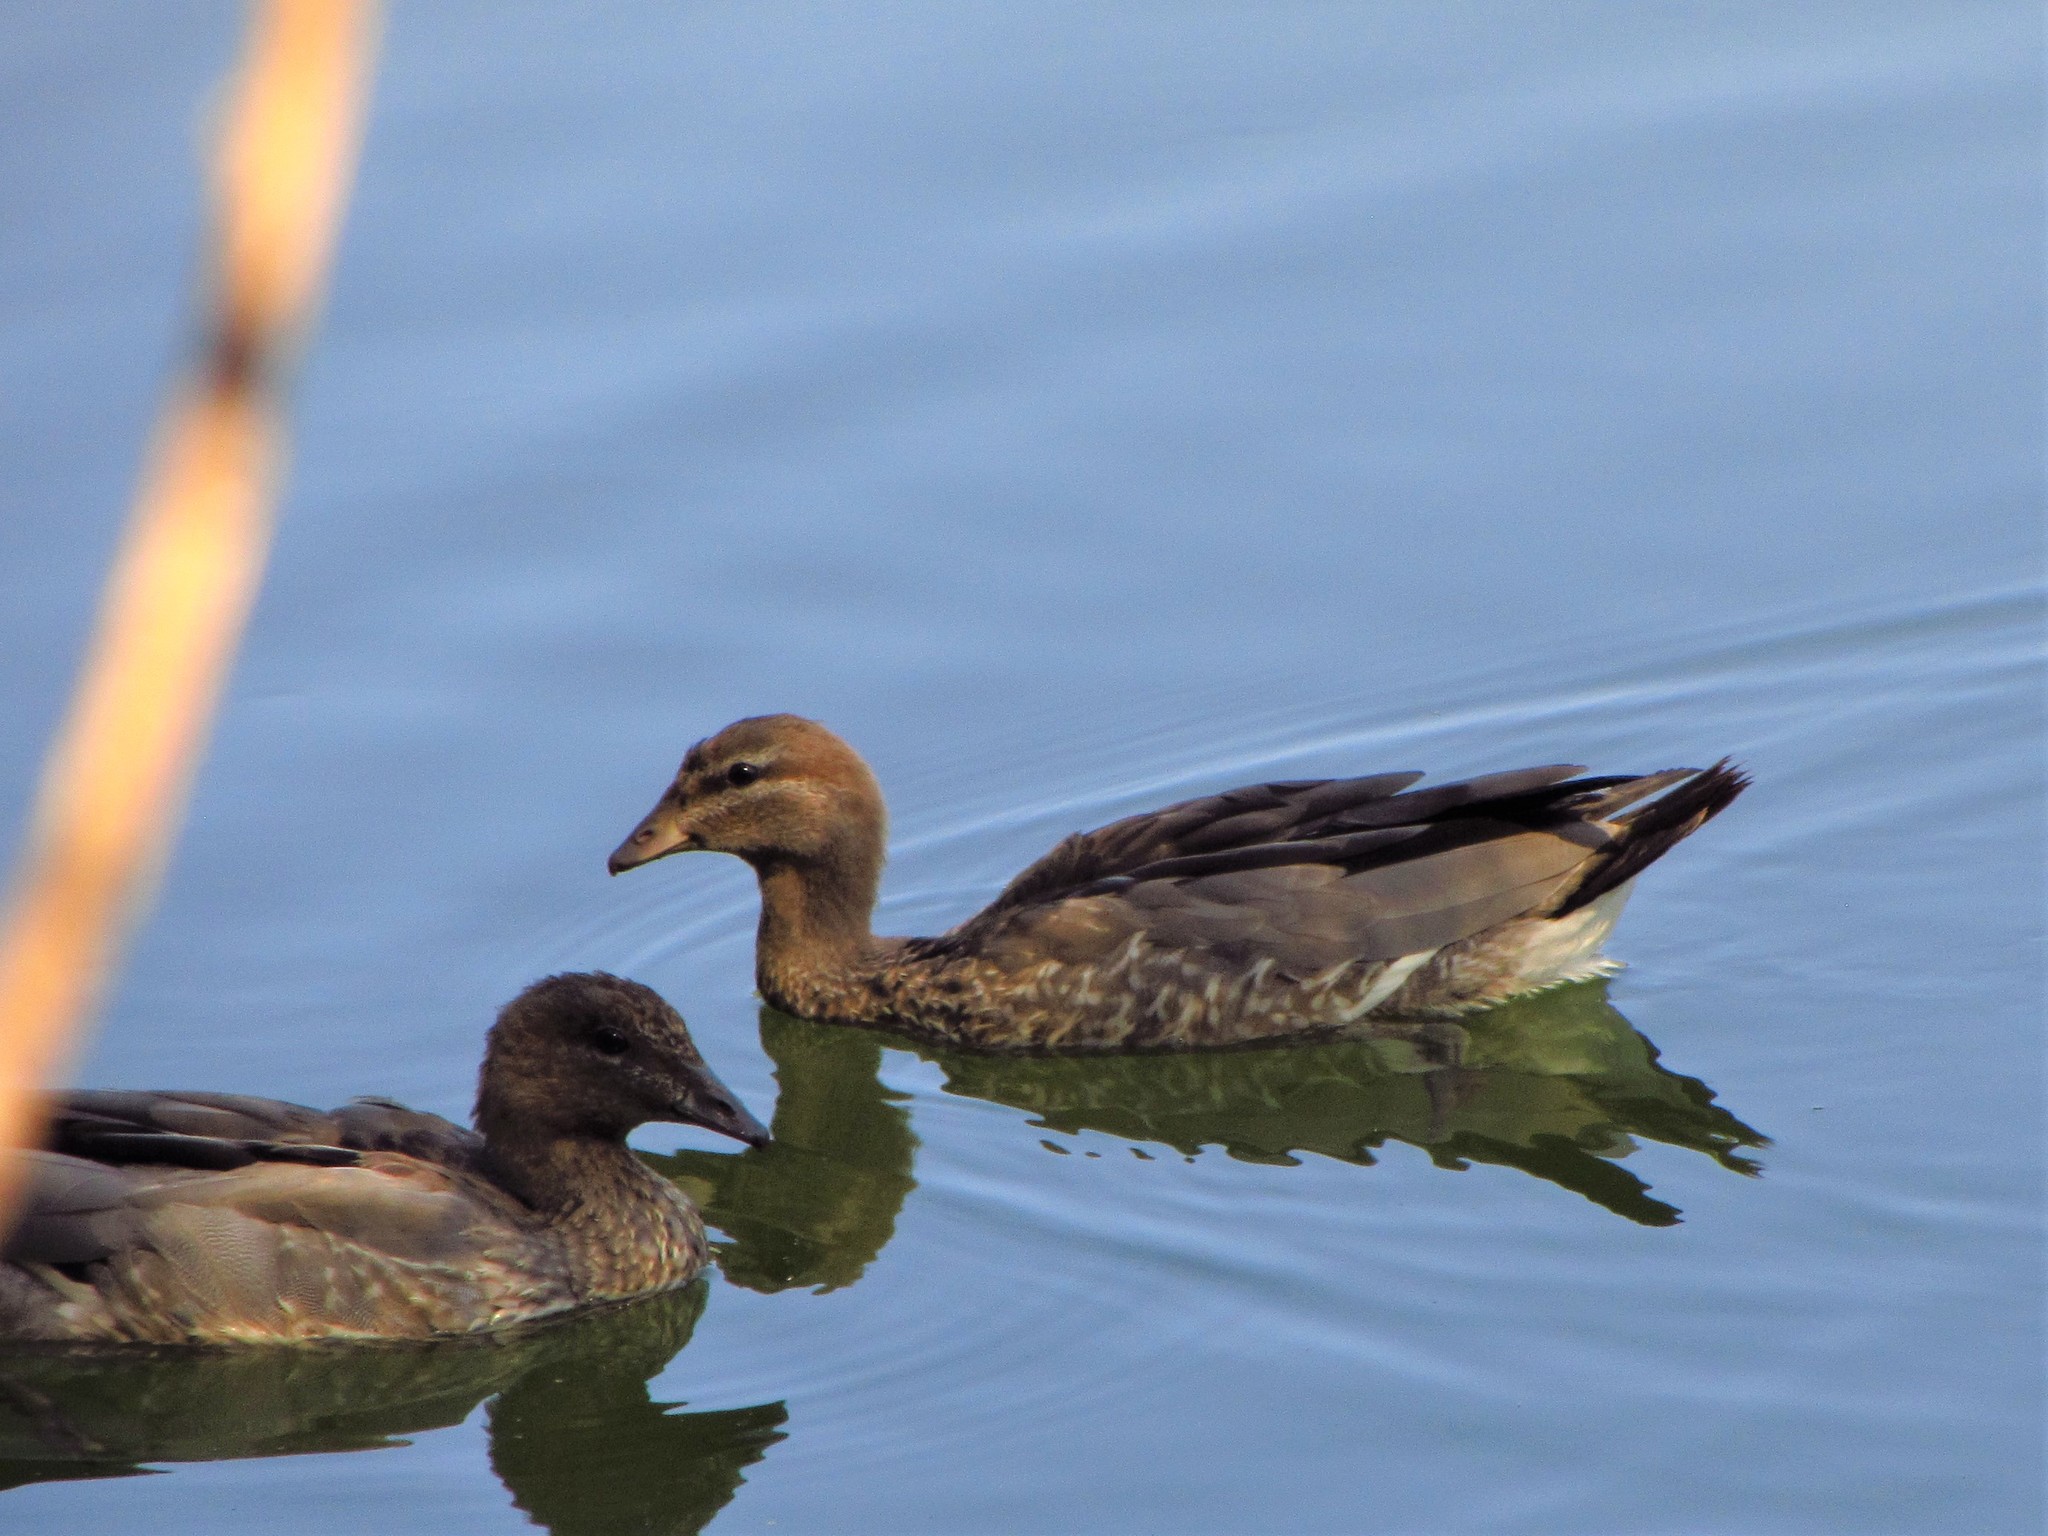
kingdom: Animalia
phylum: Chordata
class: Aves
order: Anseriformes
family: Anatidae
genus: Chenonetta
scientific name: Chenonetta jubata
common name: Maned duck
